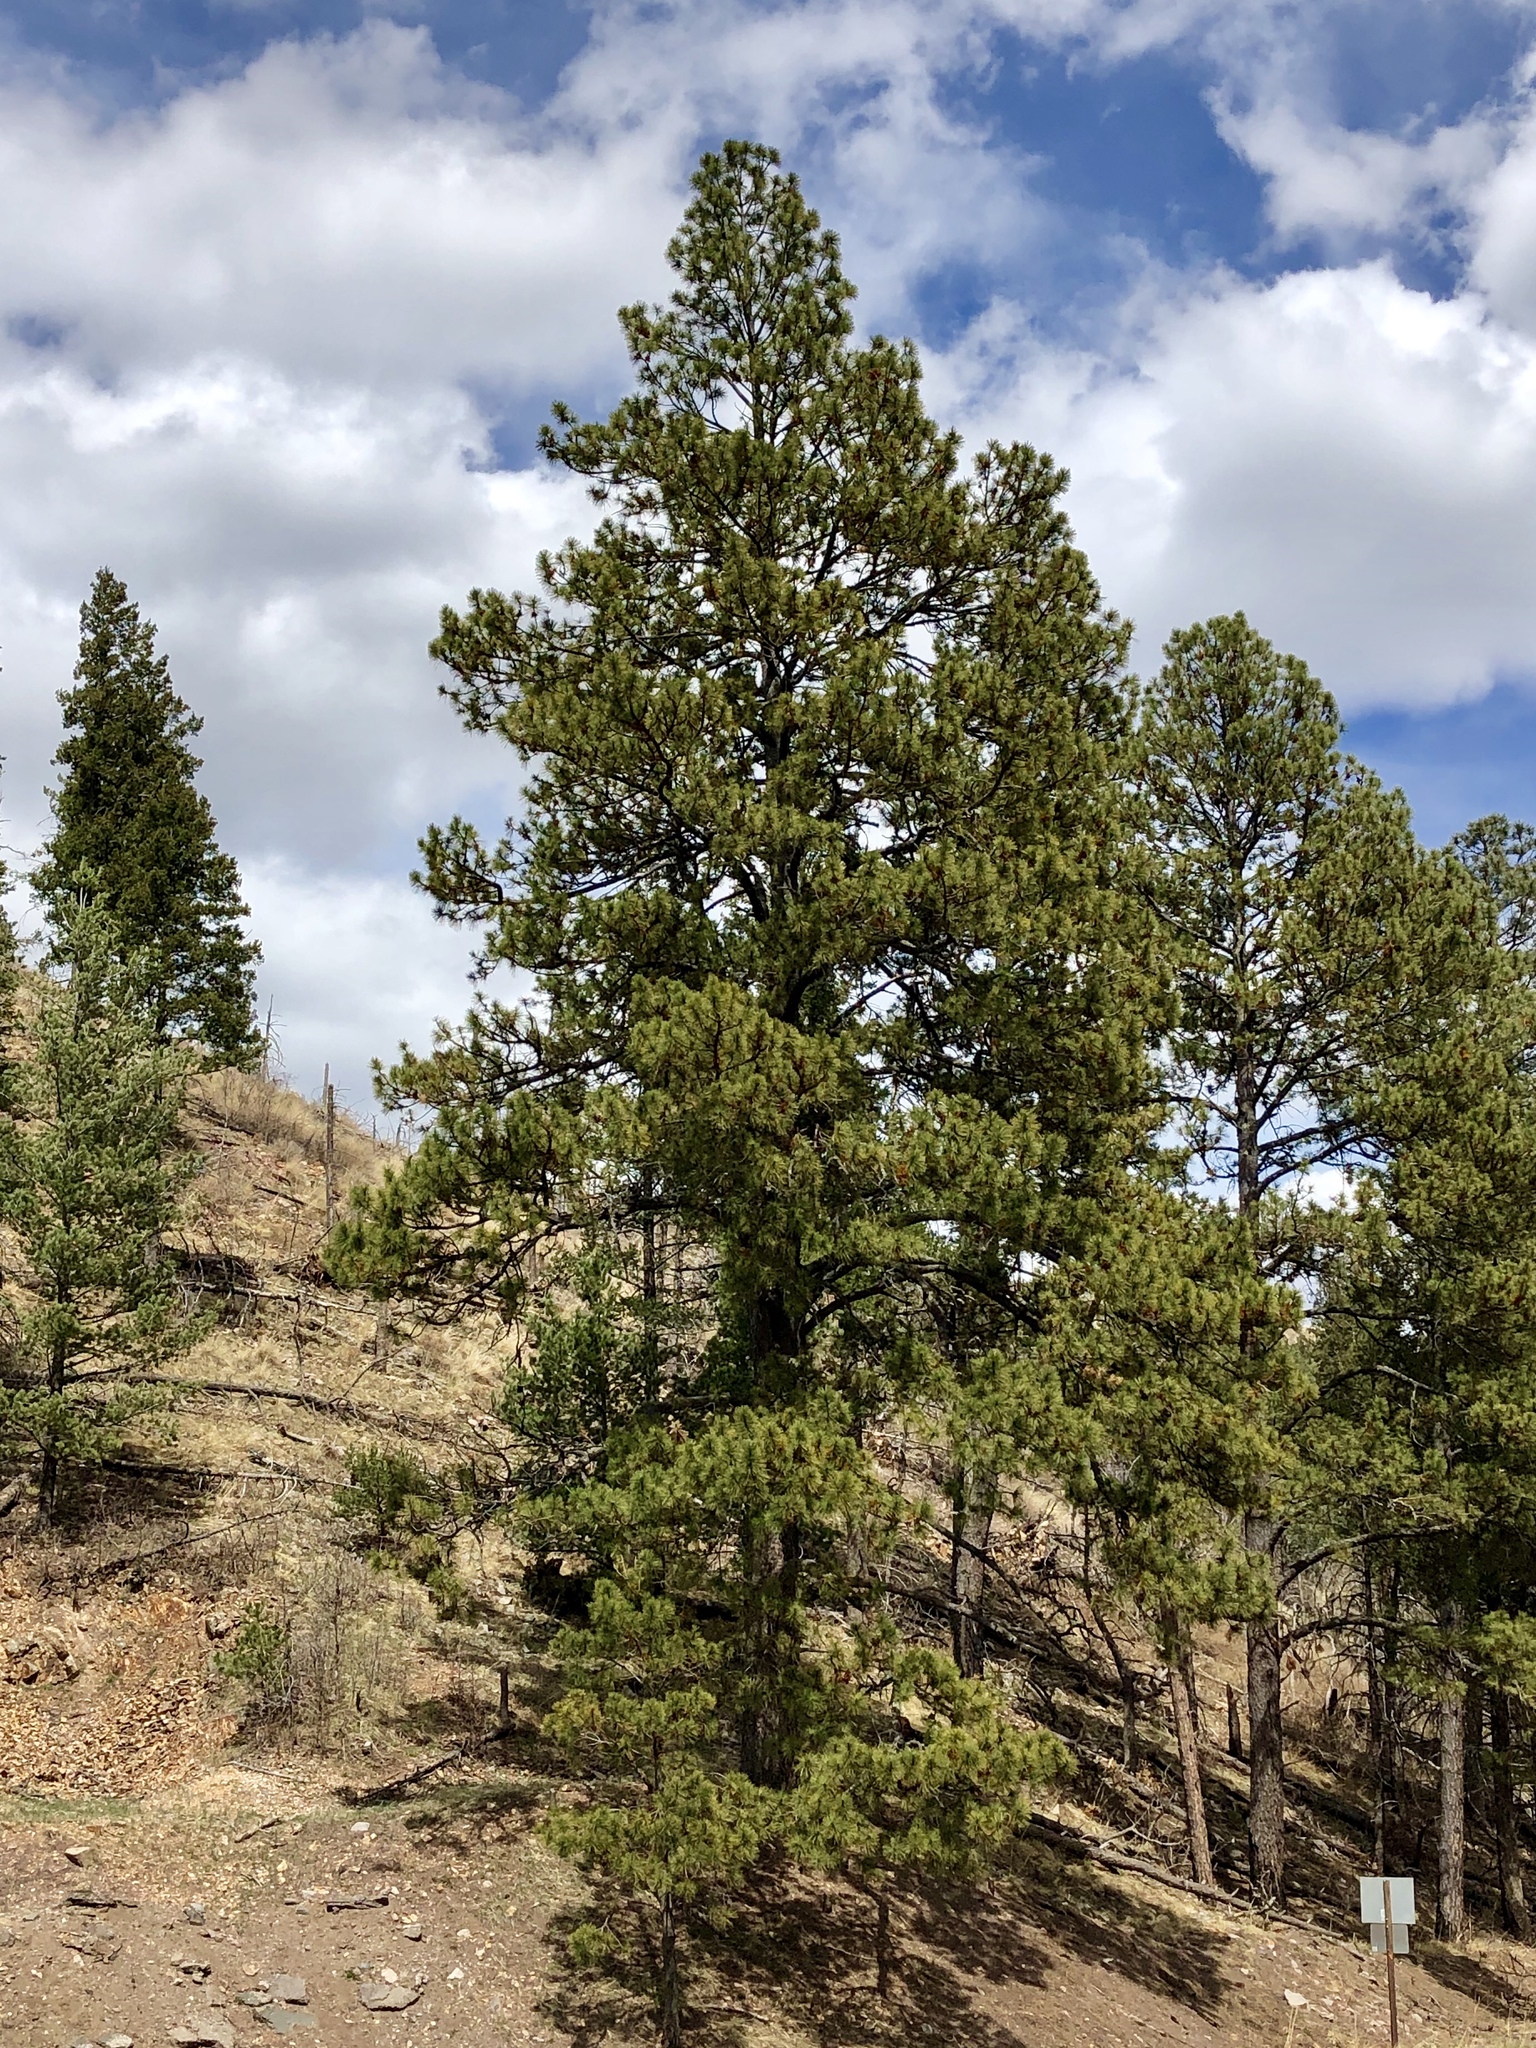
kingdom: Plantae
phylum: Tracheophyta
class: Pinopsida
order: Pinales
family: Pinaceae
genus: Pinus
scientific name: Pinus ponderosa
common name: Western yellow-pine
